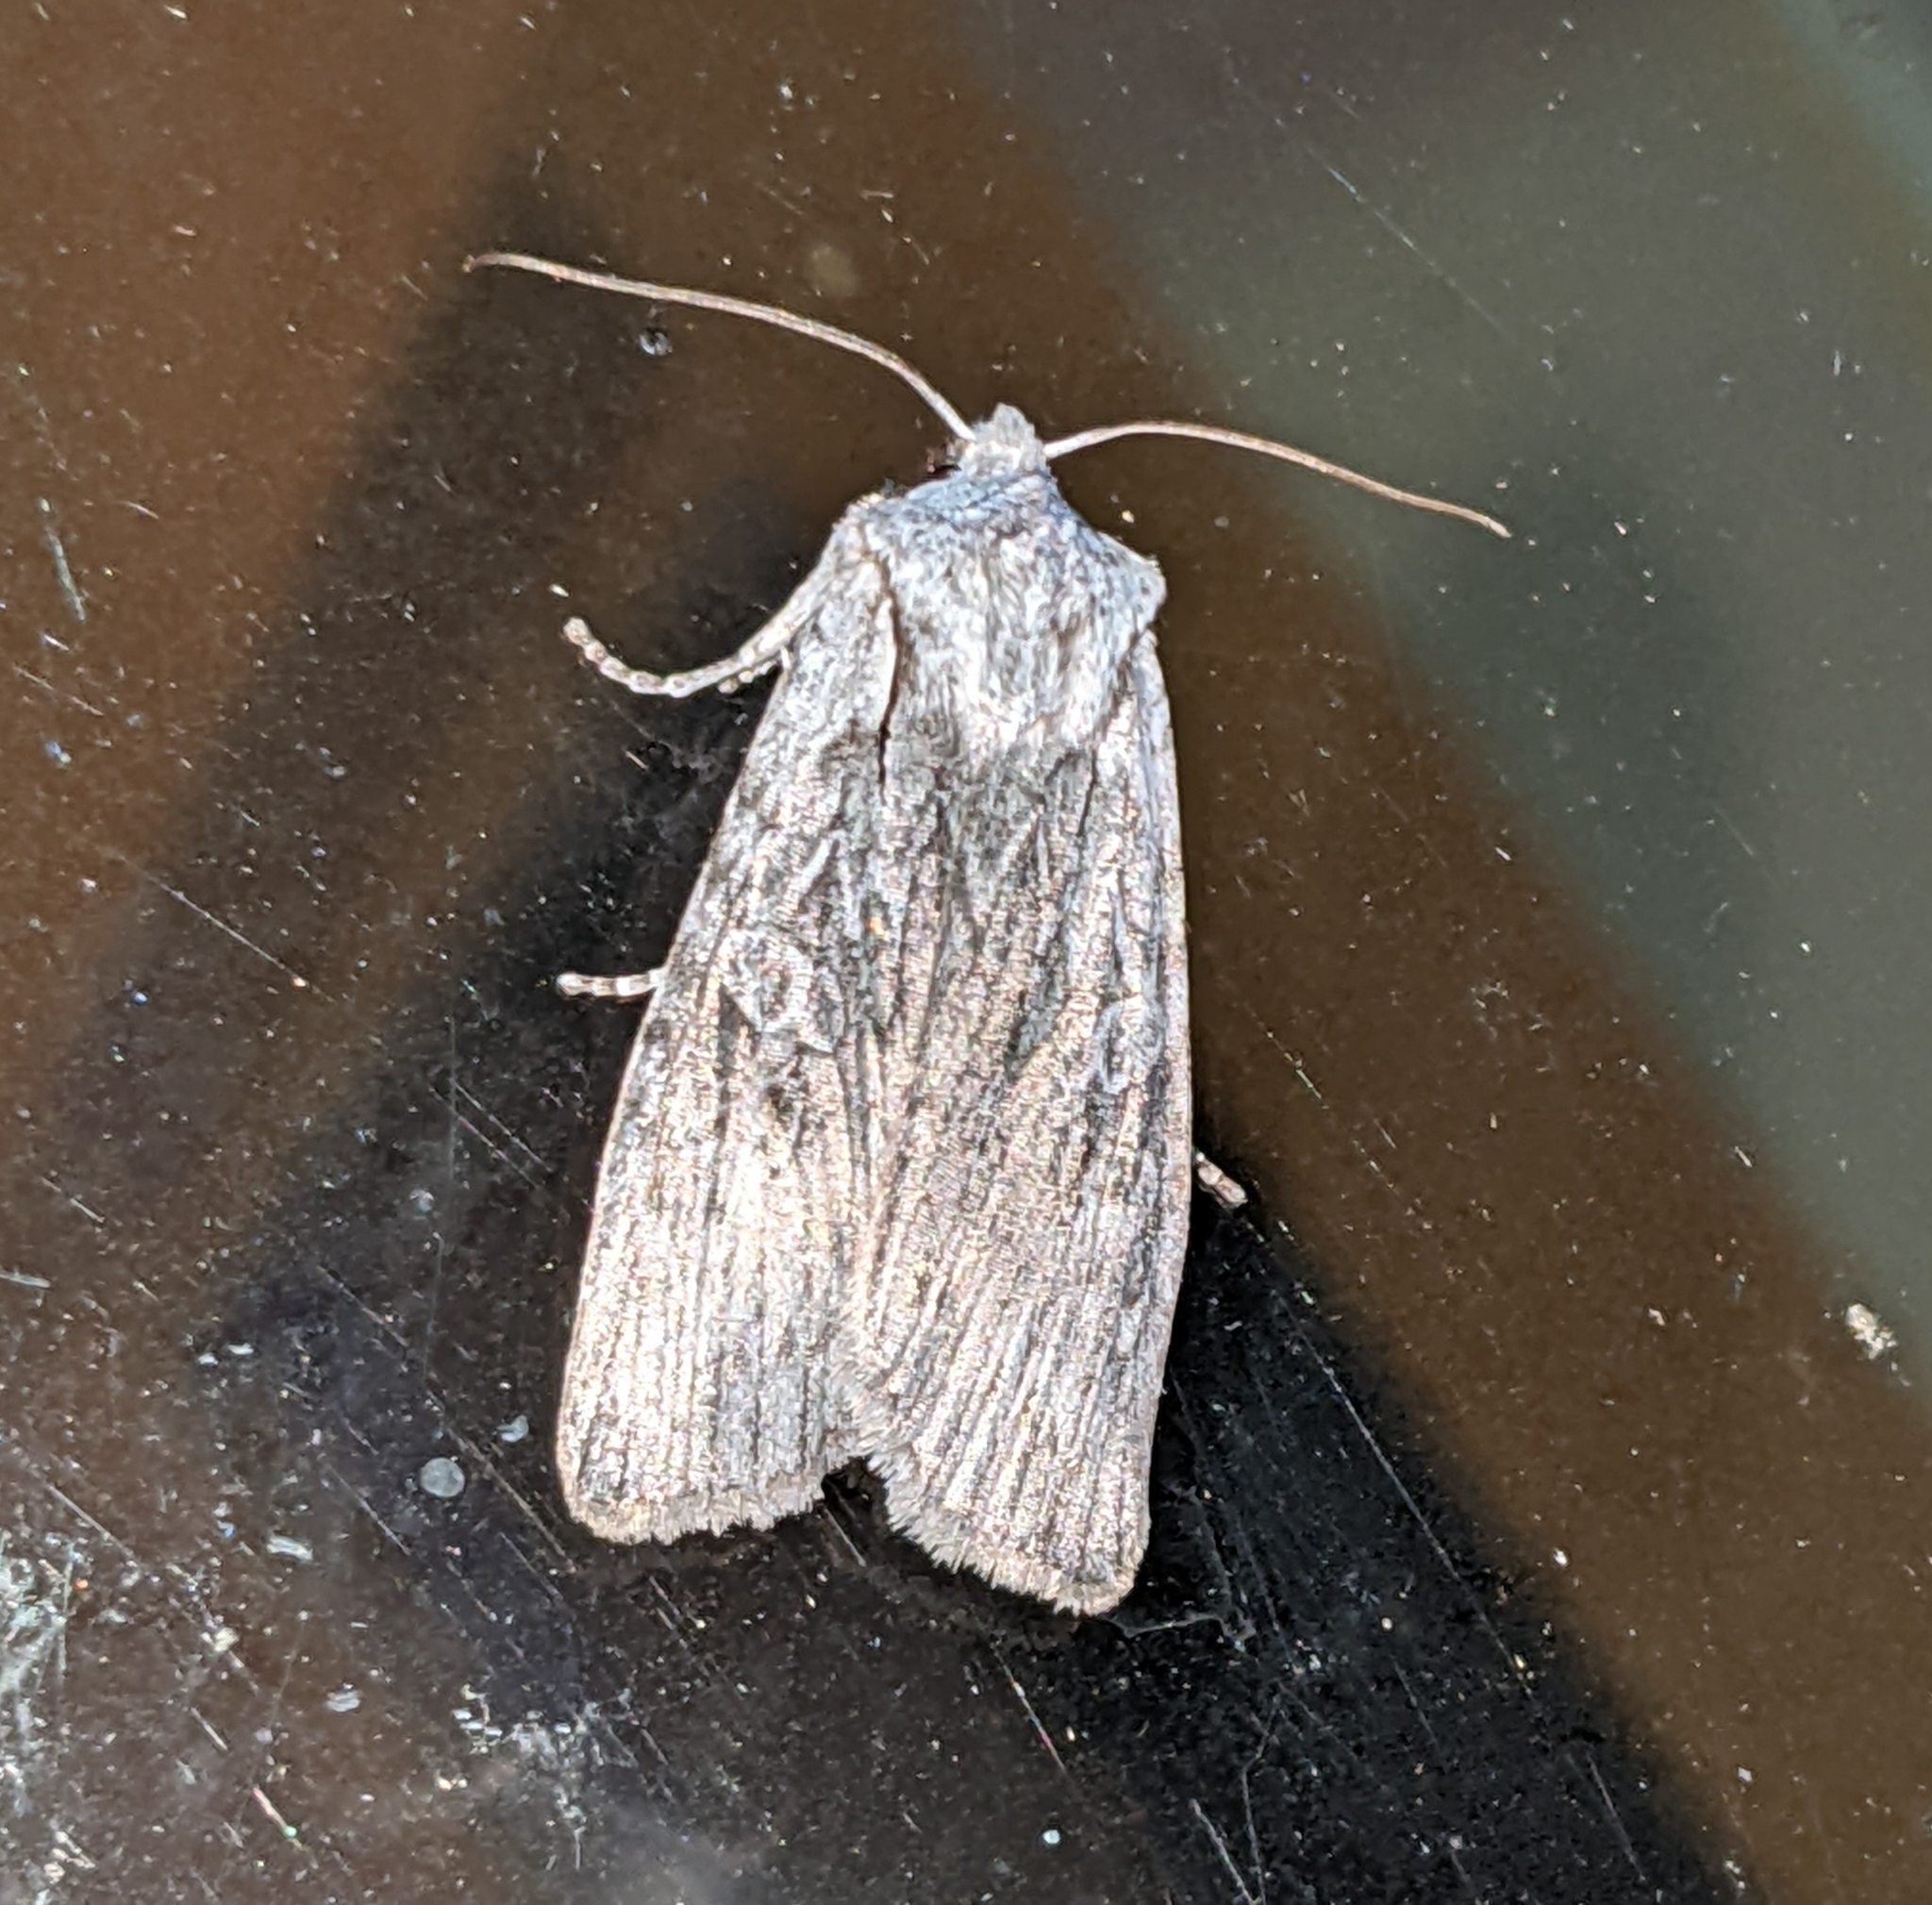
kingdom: Animalia
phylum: Arthropoda
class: Insecta
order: Lepidoptera
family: Noctuidae
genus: Lithophane
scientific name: Lithophane georgii
